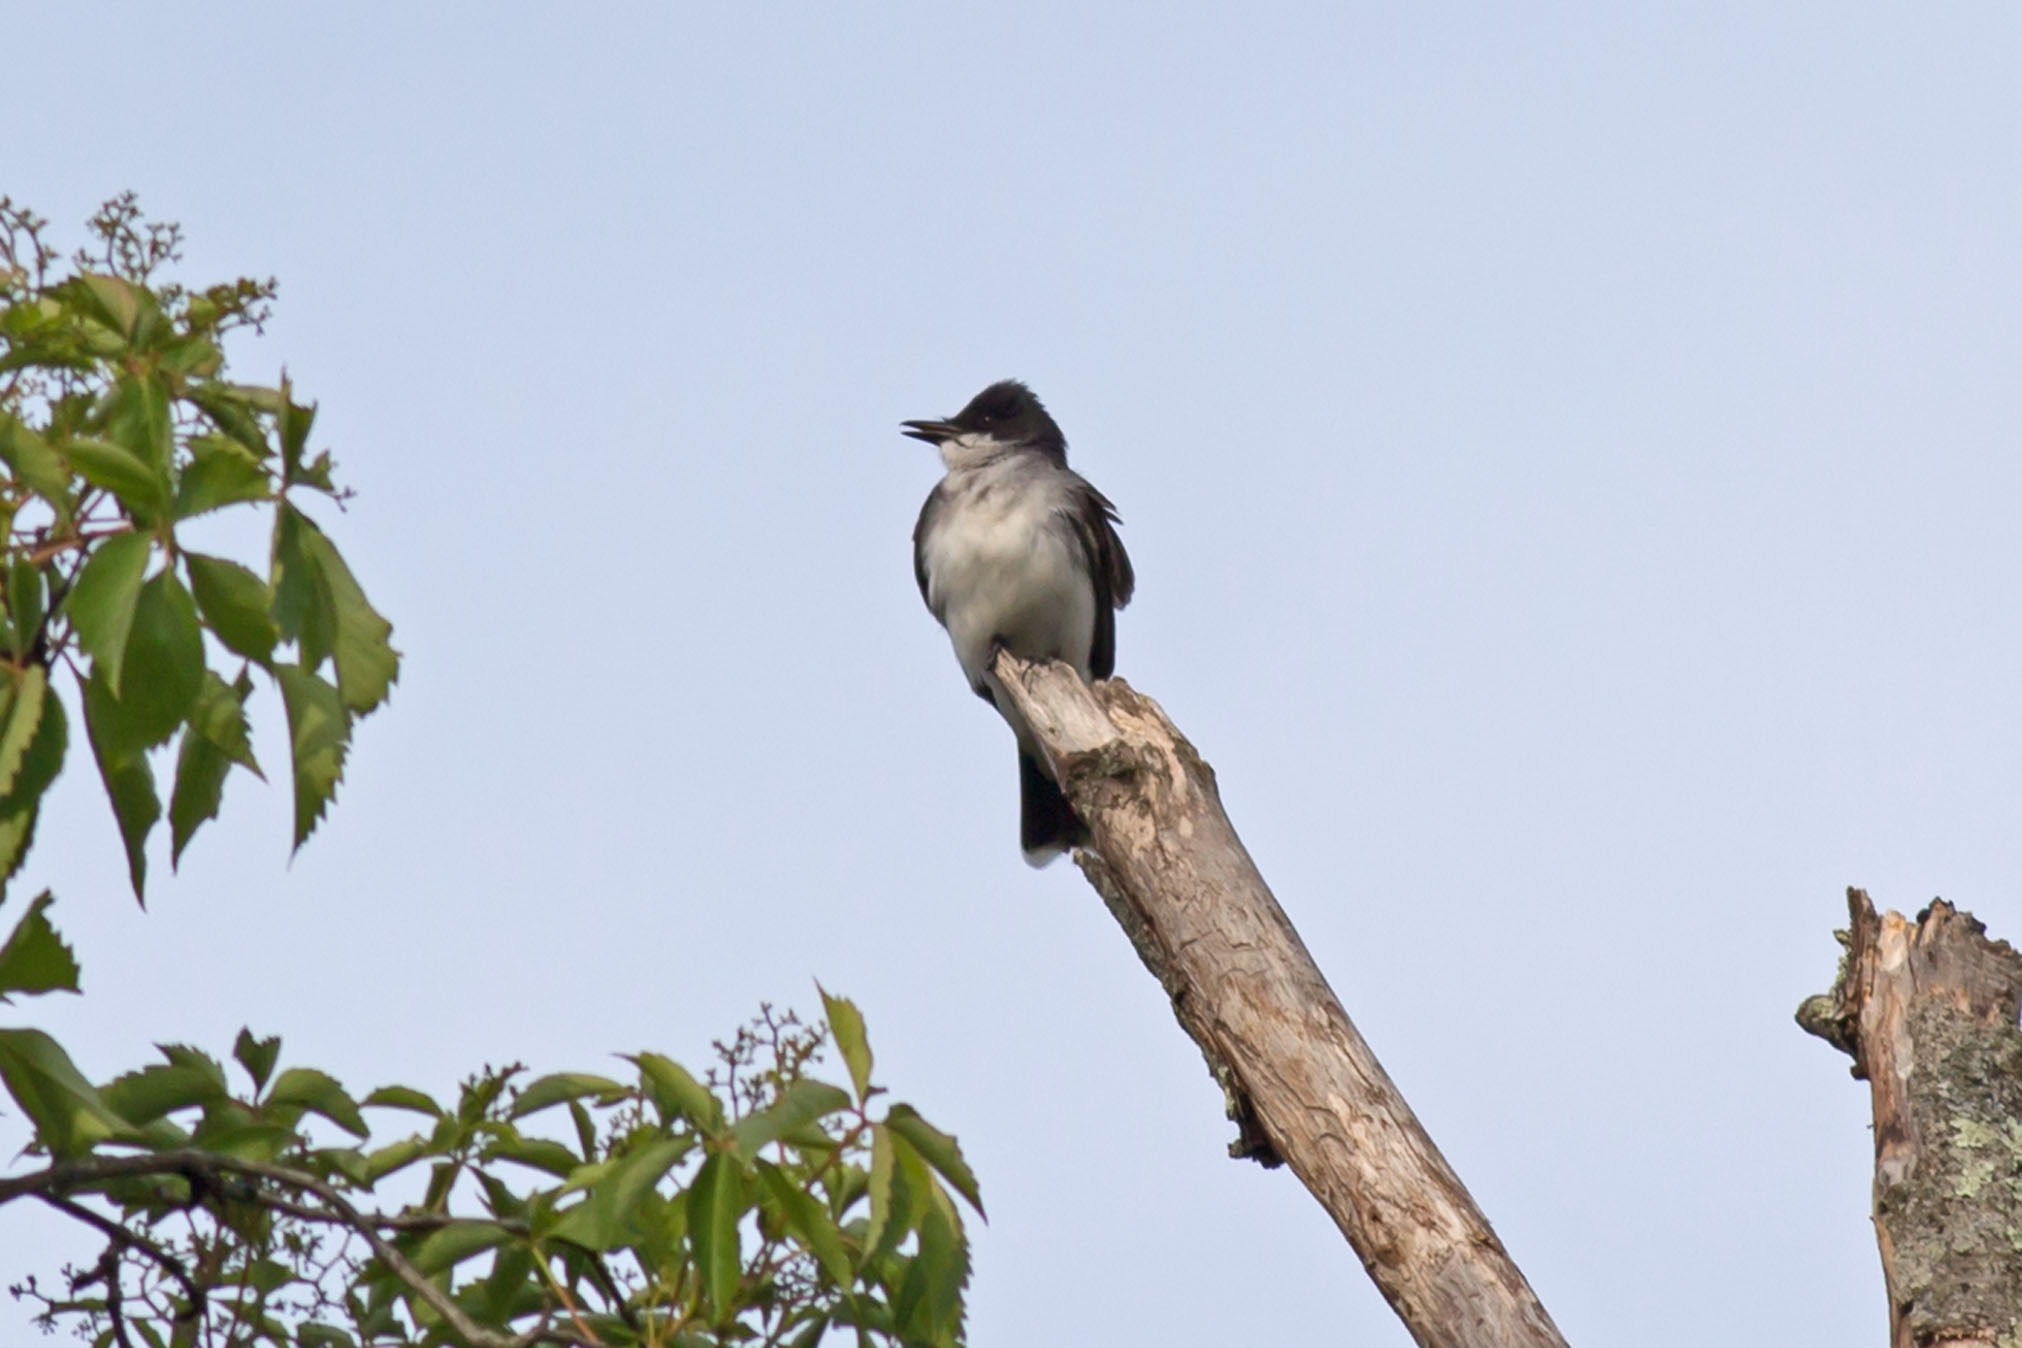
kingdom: Animalia
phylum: Chordata
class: Aves
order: Passeriformes
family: Tyrannidae
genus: Tyrannus
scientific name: Tyrannus tyrannus
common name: Eastern kingbird
